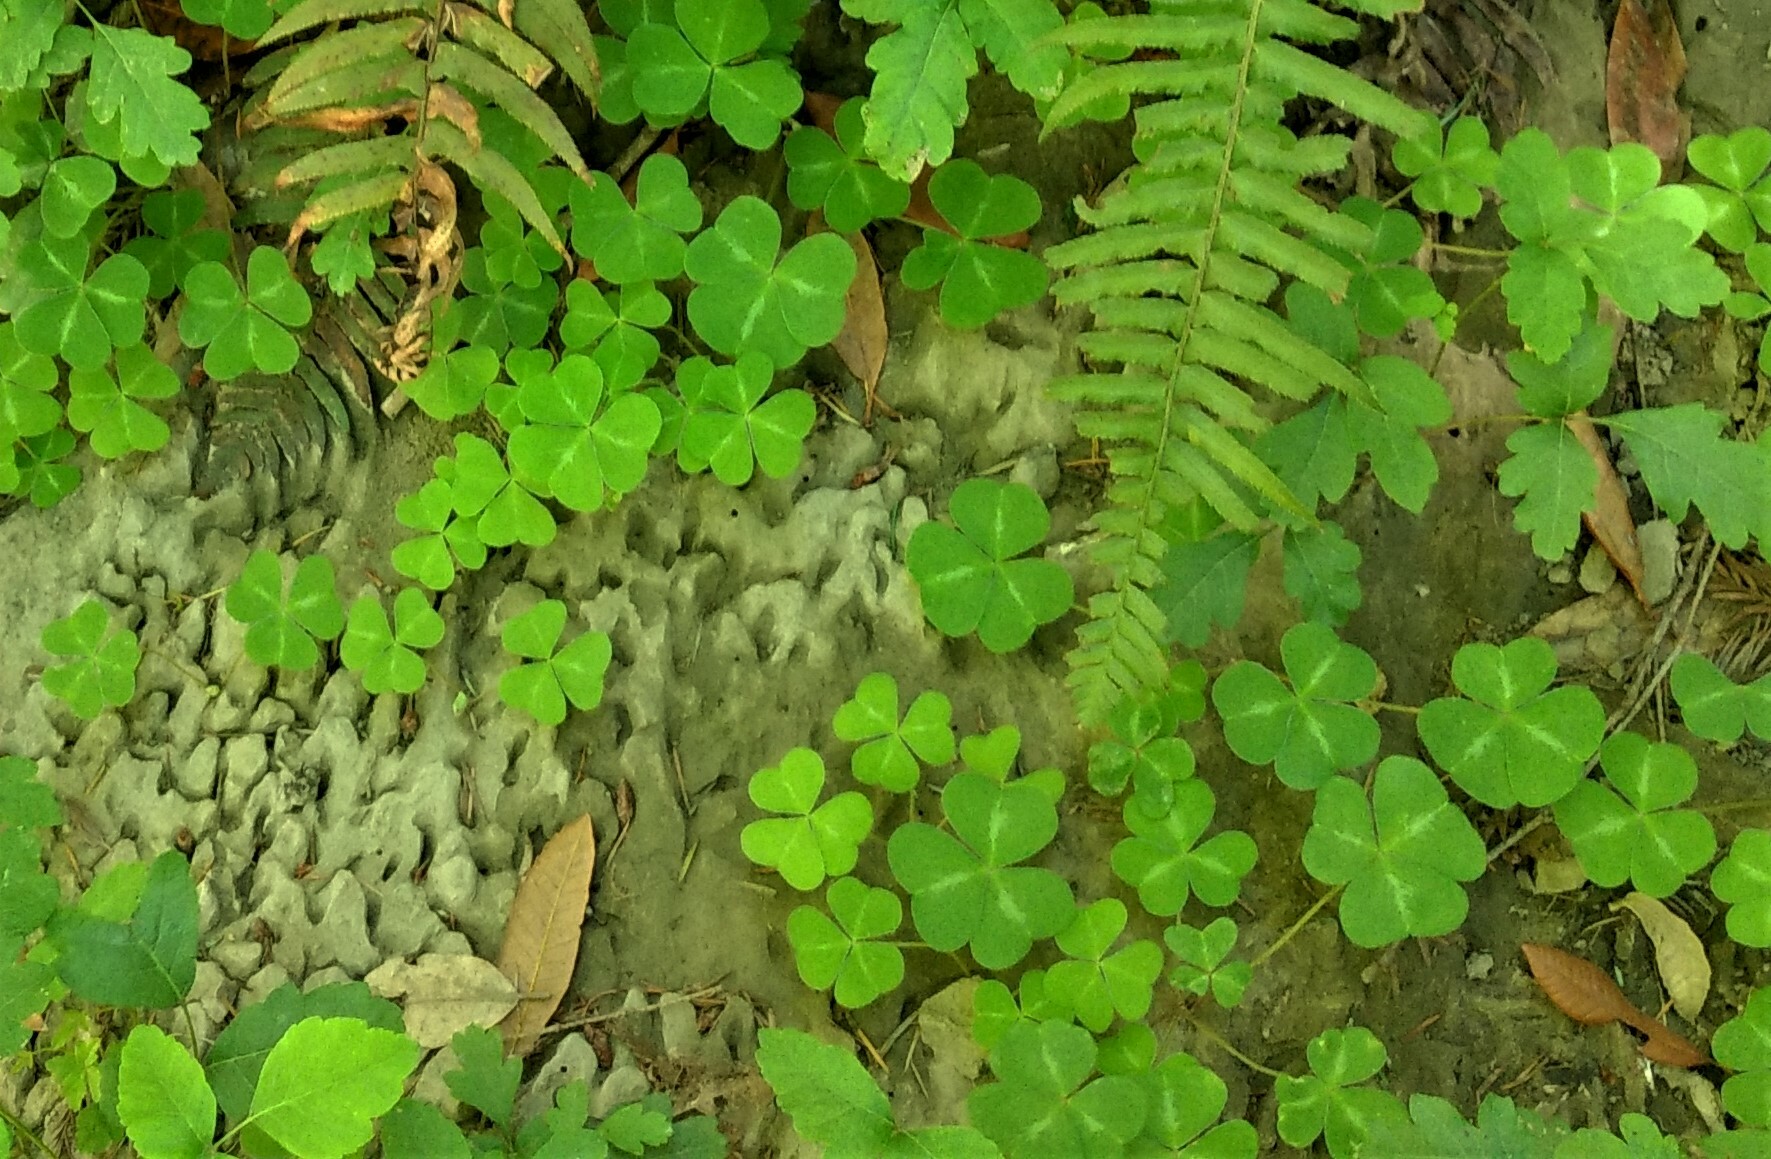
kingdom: Plantae
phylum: Tracheophyta
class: Magnoliopsida
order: Oxalidales
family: Oxalidaceae
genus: Oxalis
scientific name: Oxalis oregana
